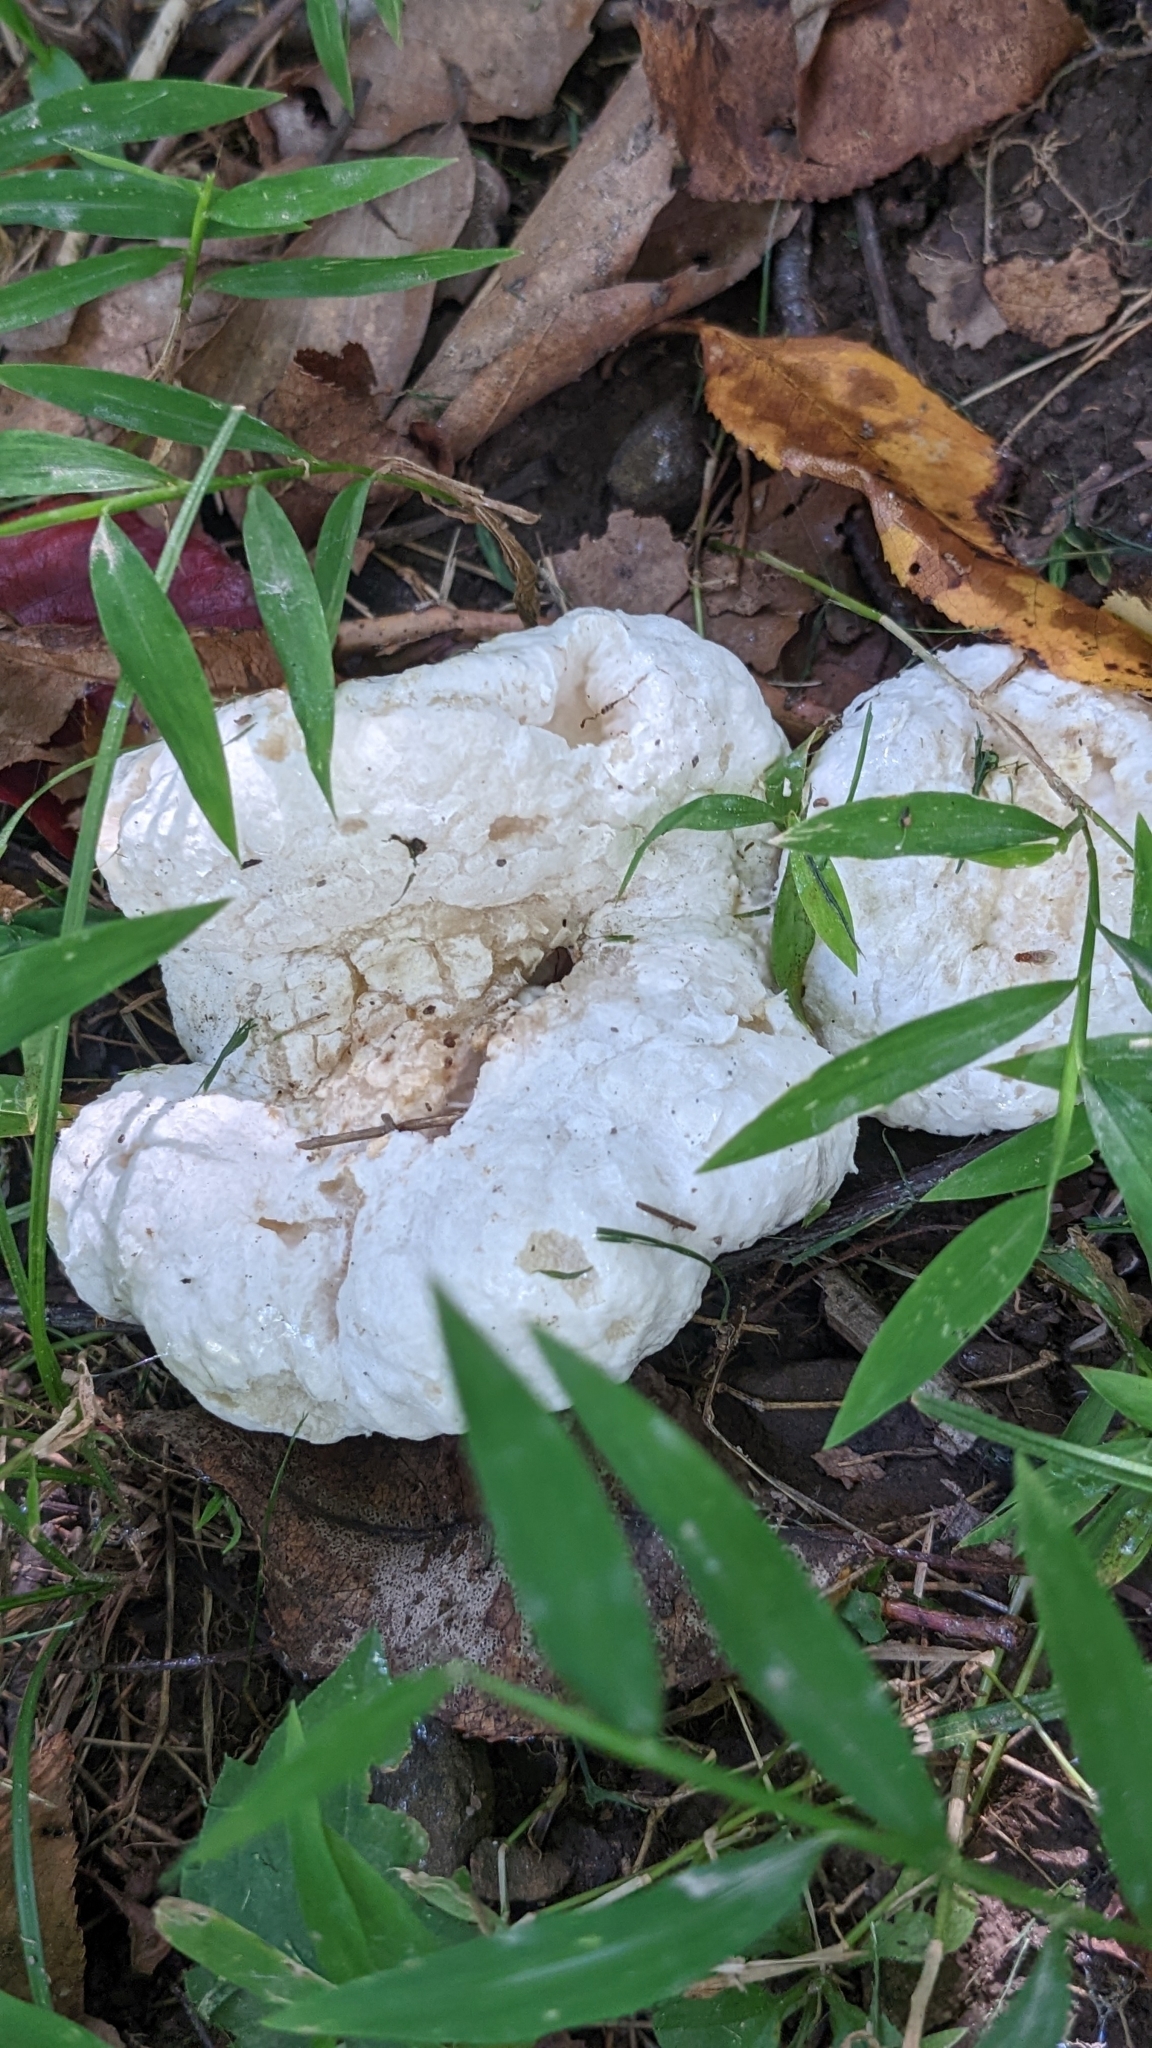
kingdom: Fungi
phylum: Basidiomycota
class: Agaricomycetes
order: Agaricales
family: Entolomataceae
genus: Entoloma
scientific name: Entoloma abortivum
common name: Aborted entoloma
